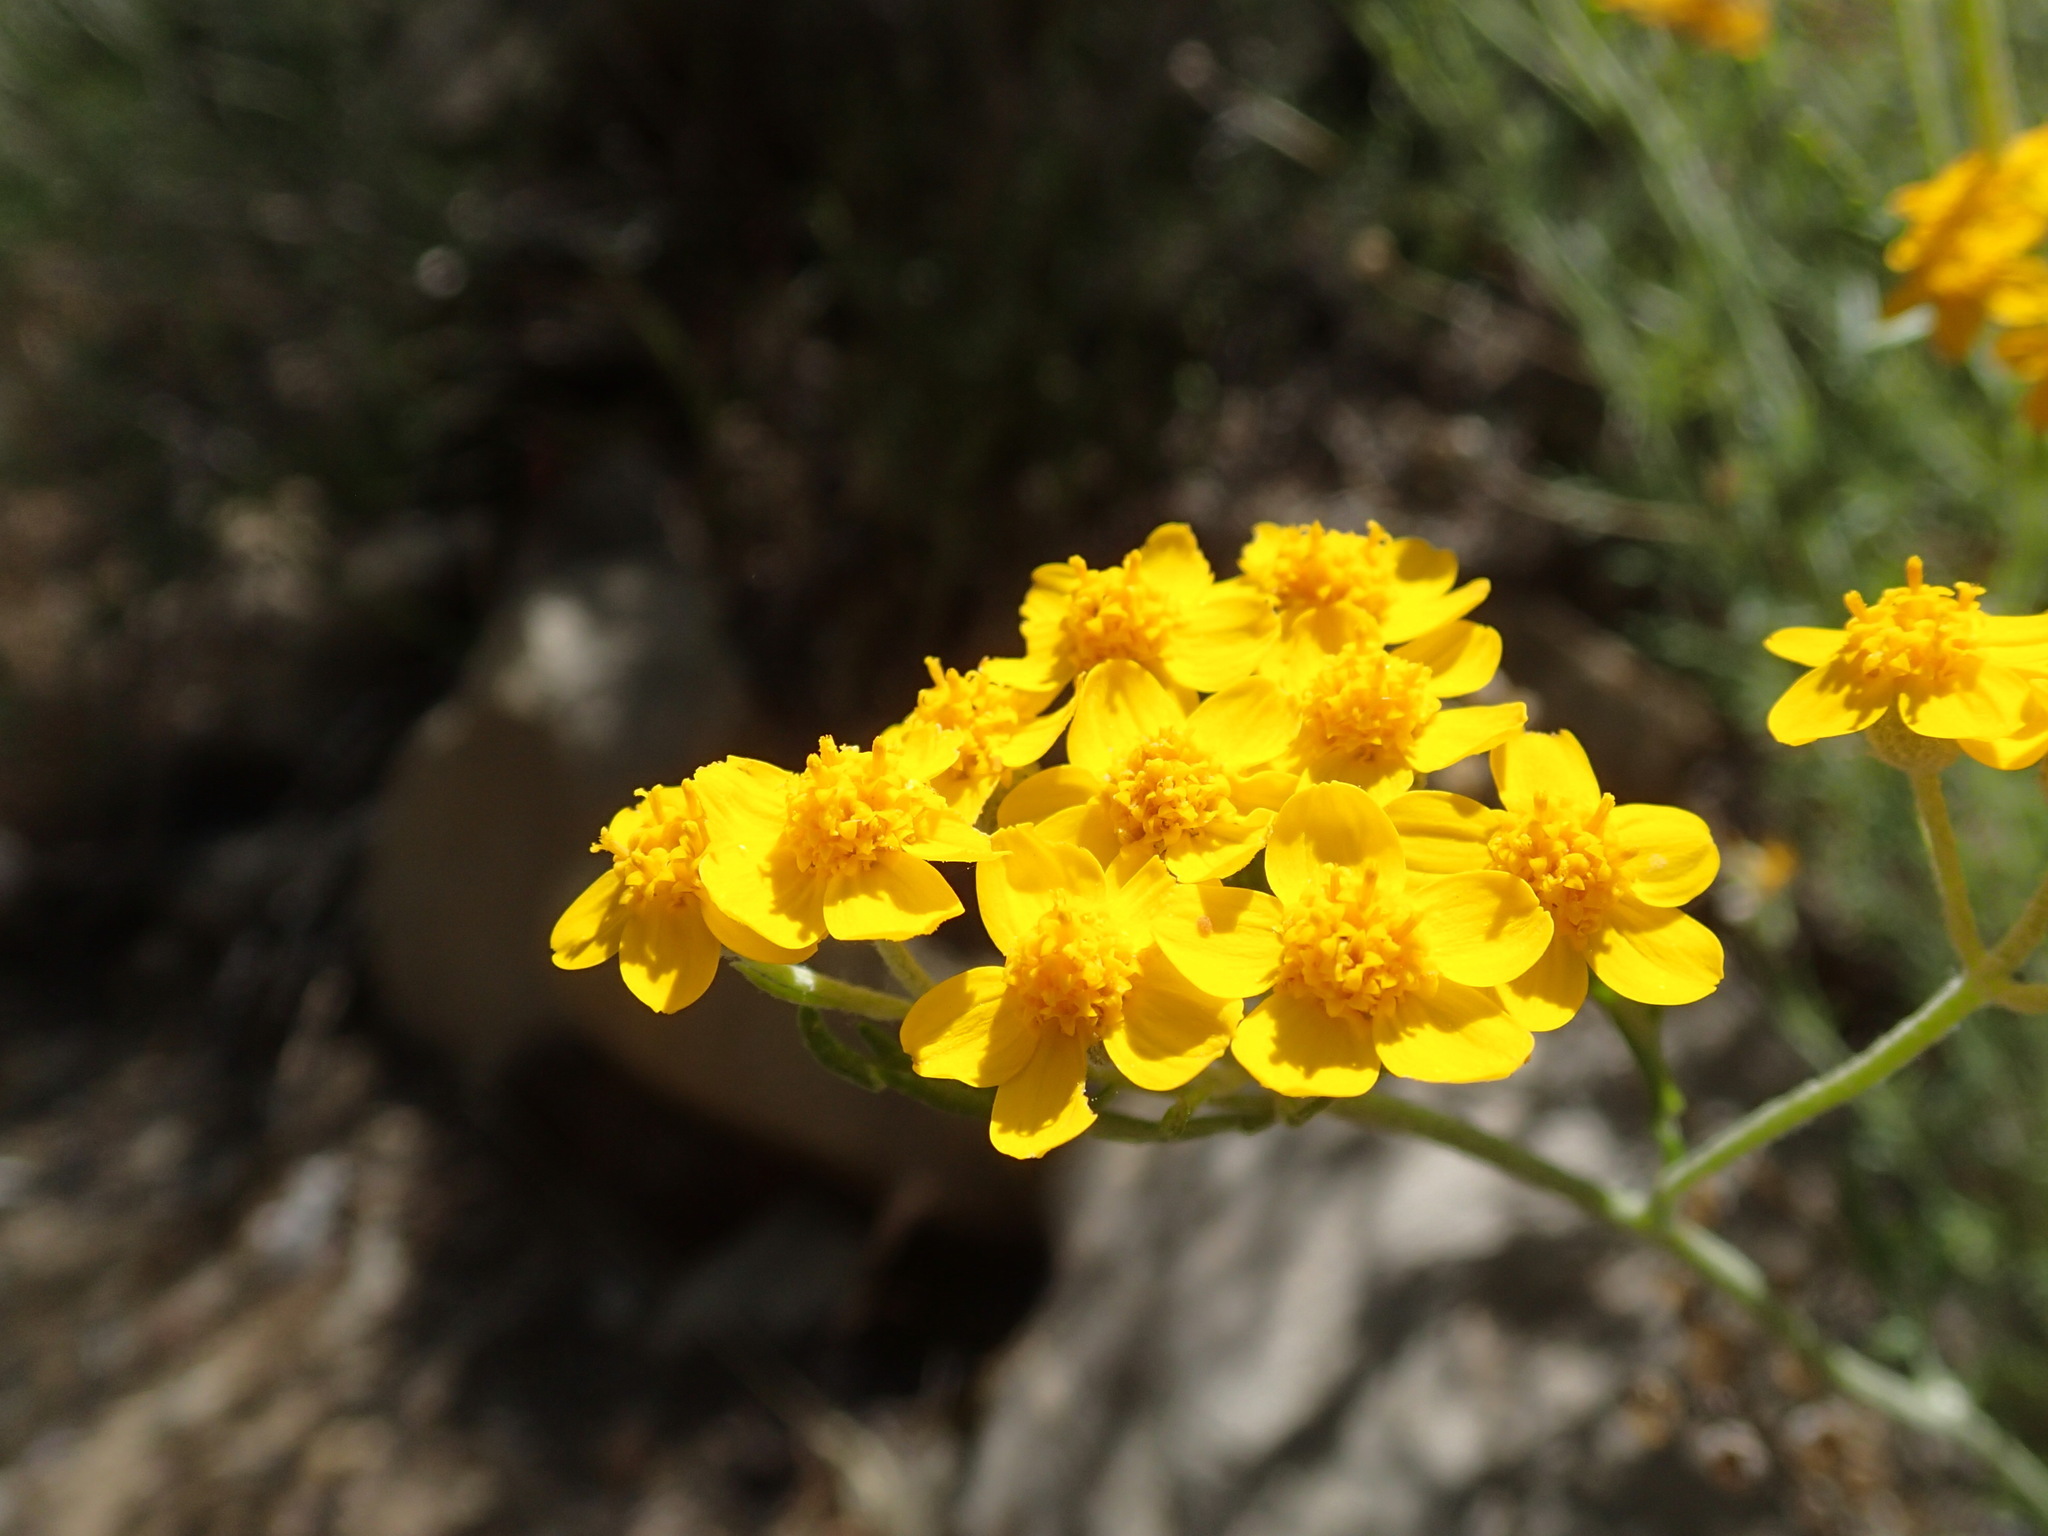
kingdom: Plantae
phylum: Tracheophyta
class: Magnoliopsida
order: Asterales
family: Asteraceae
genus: Eriophyllum
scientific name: Eriophyllum confertiflorum
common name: Golden-yarrow
